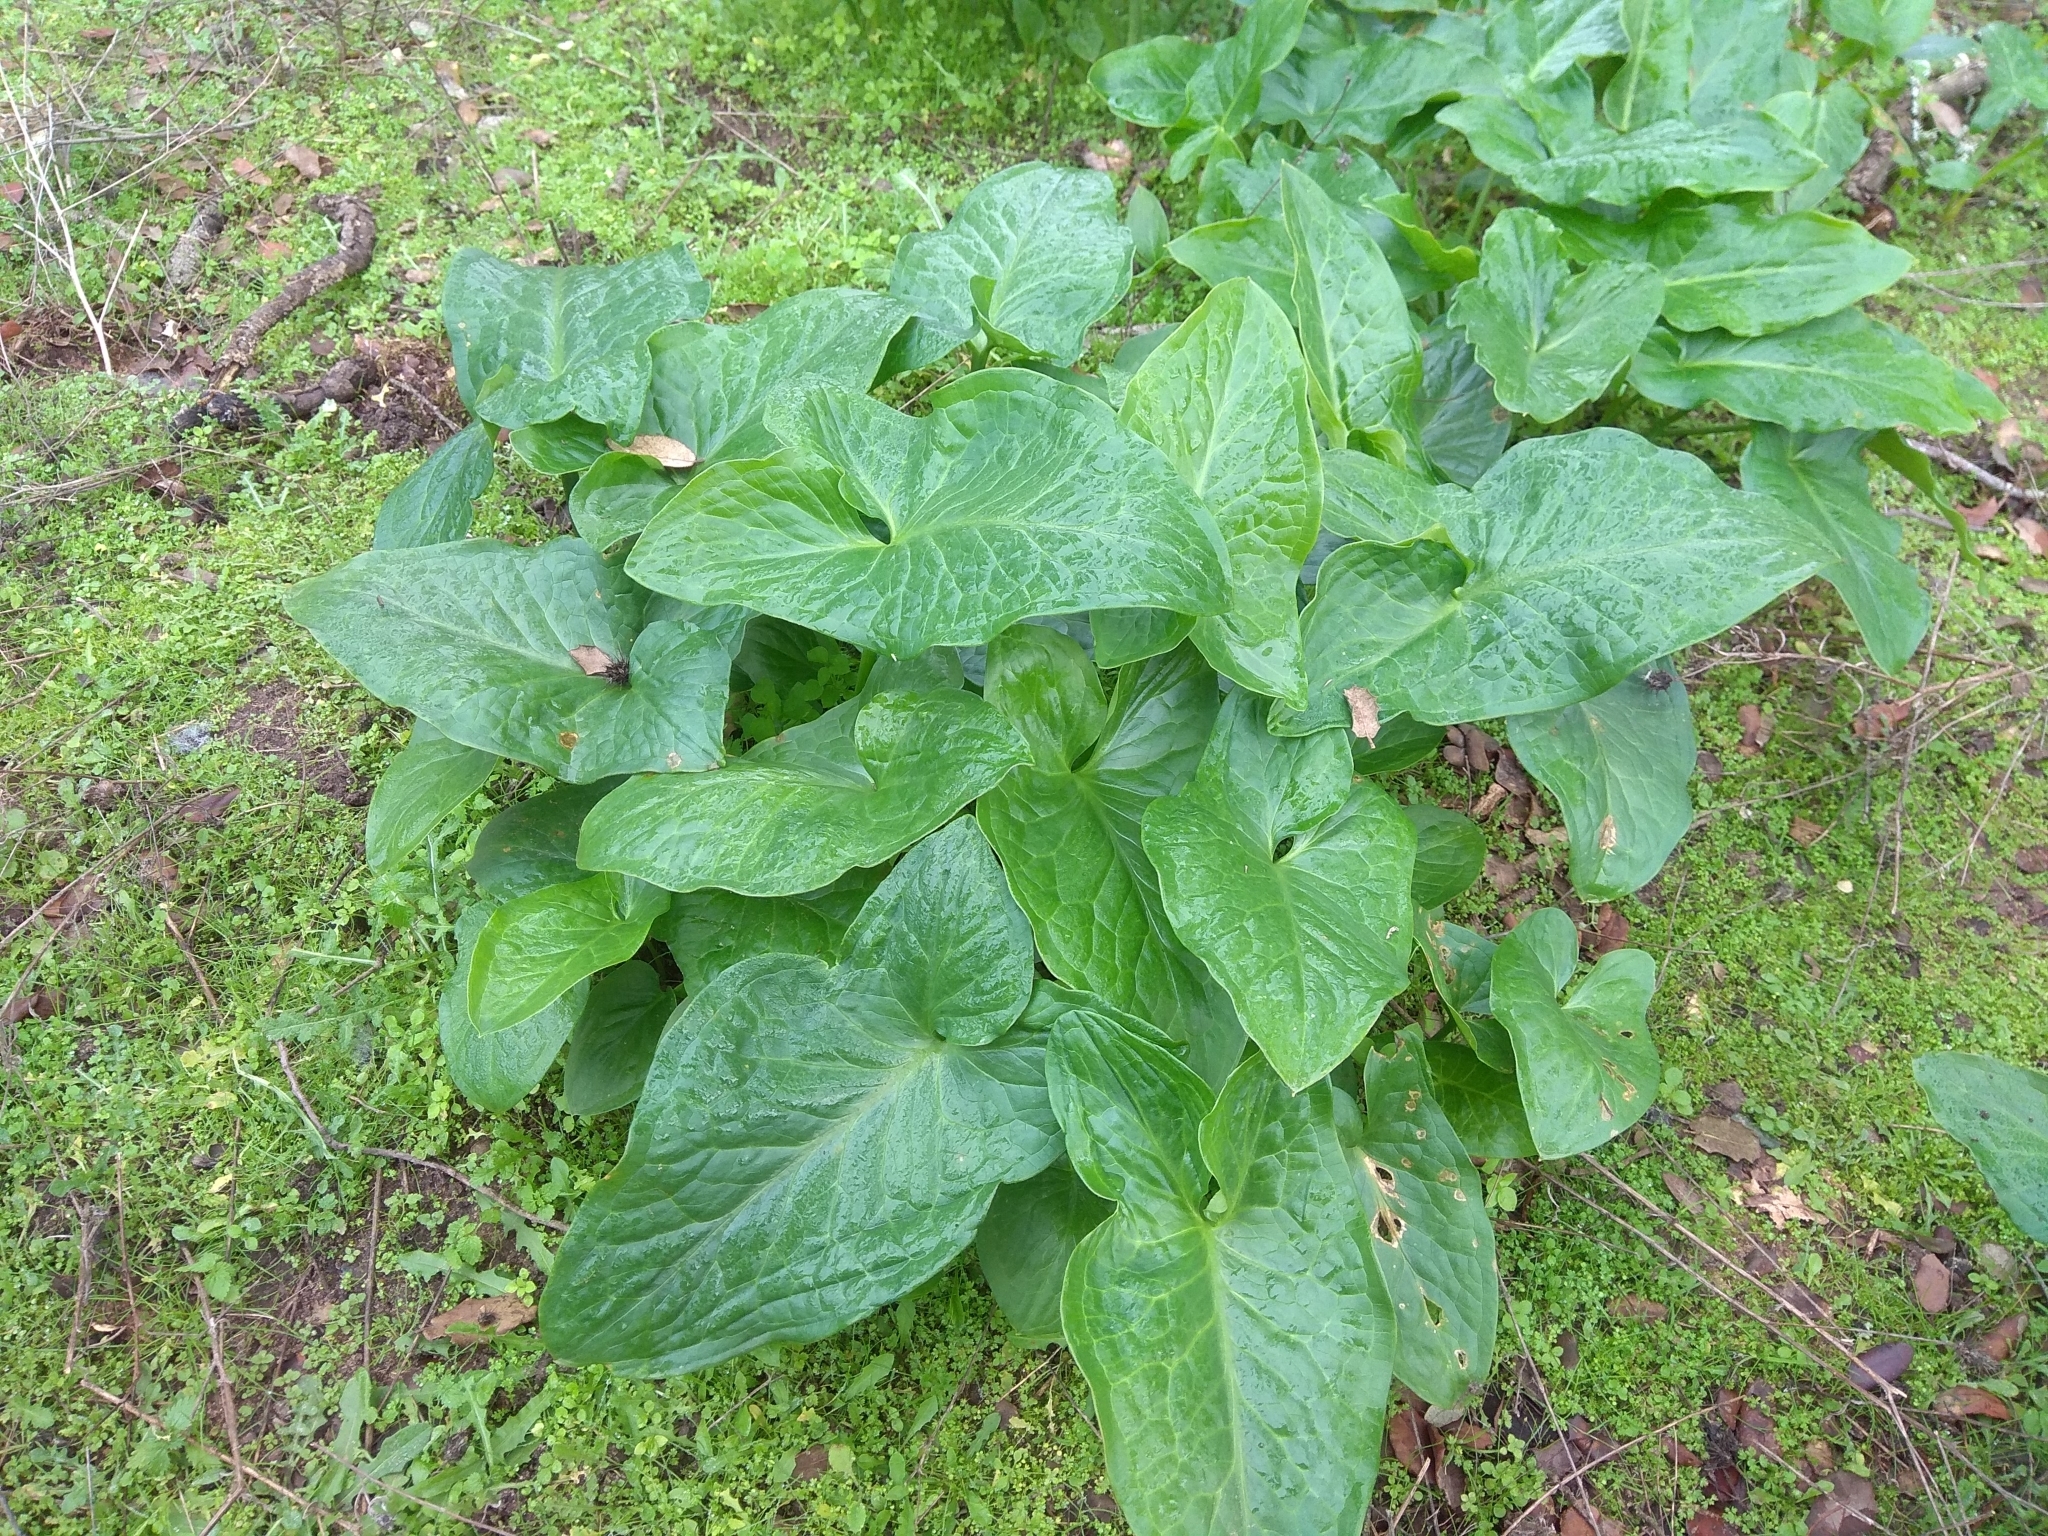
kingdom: Plantae
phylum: Tracheophyta
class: Liliopsida
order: Alismatales
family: Araceae
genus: Arum
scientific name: Arum italicum
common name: Italian lords-and-ladies
